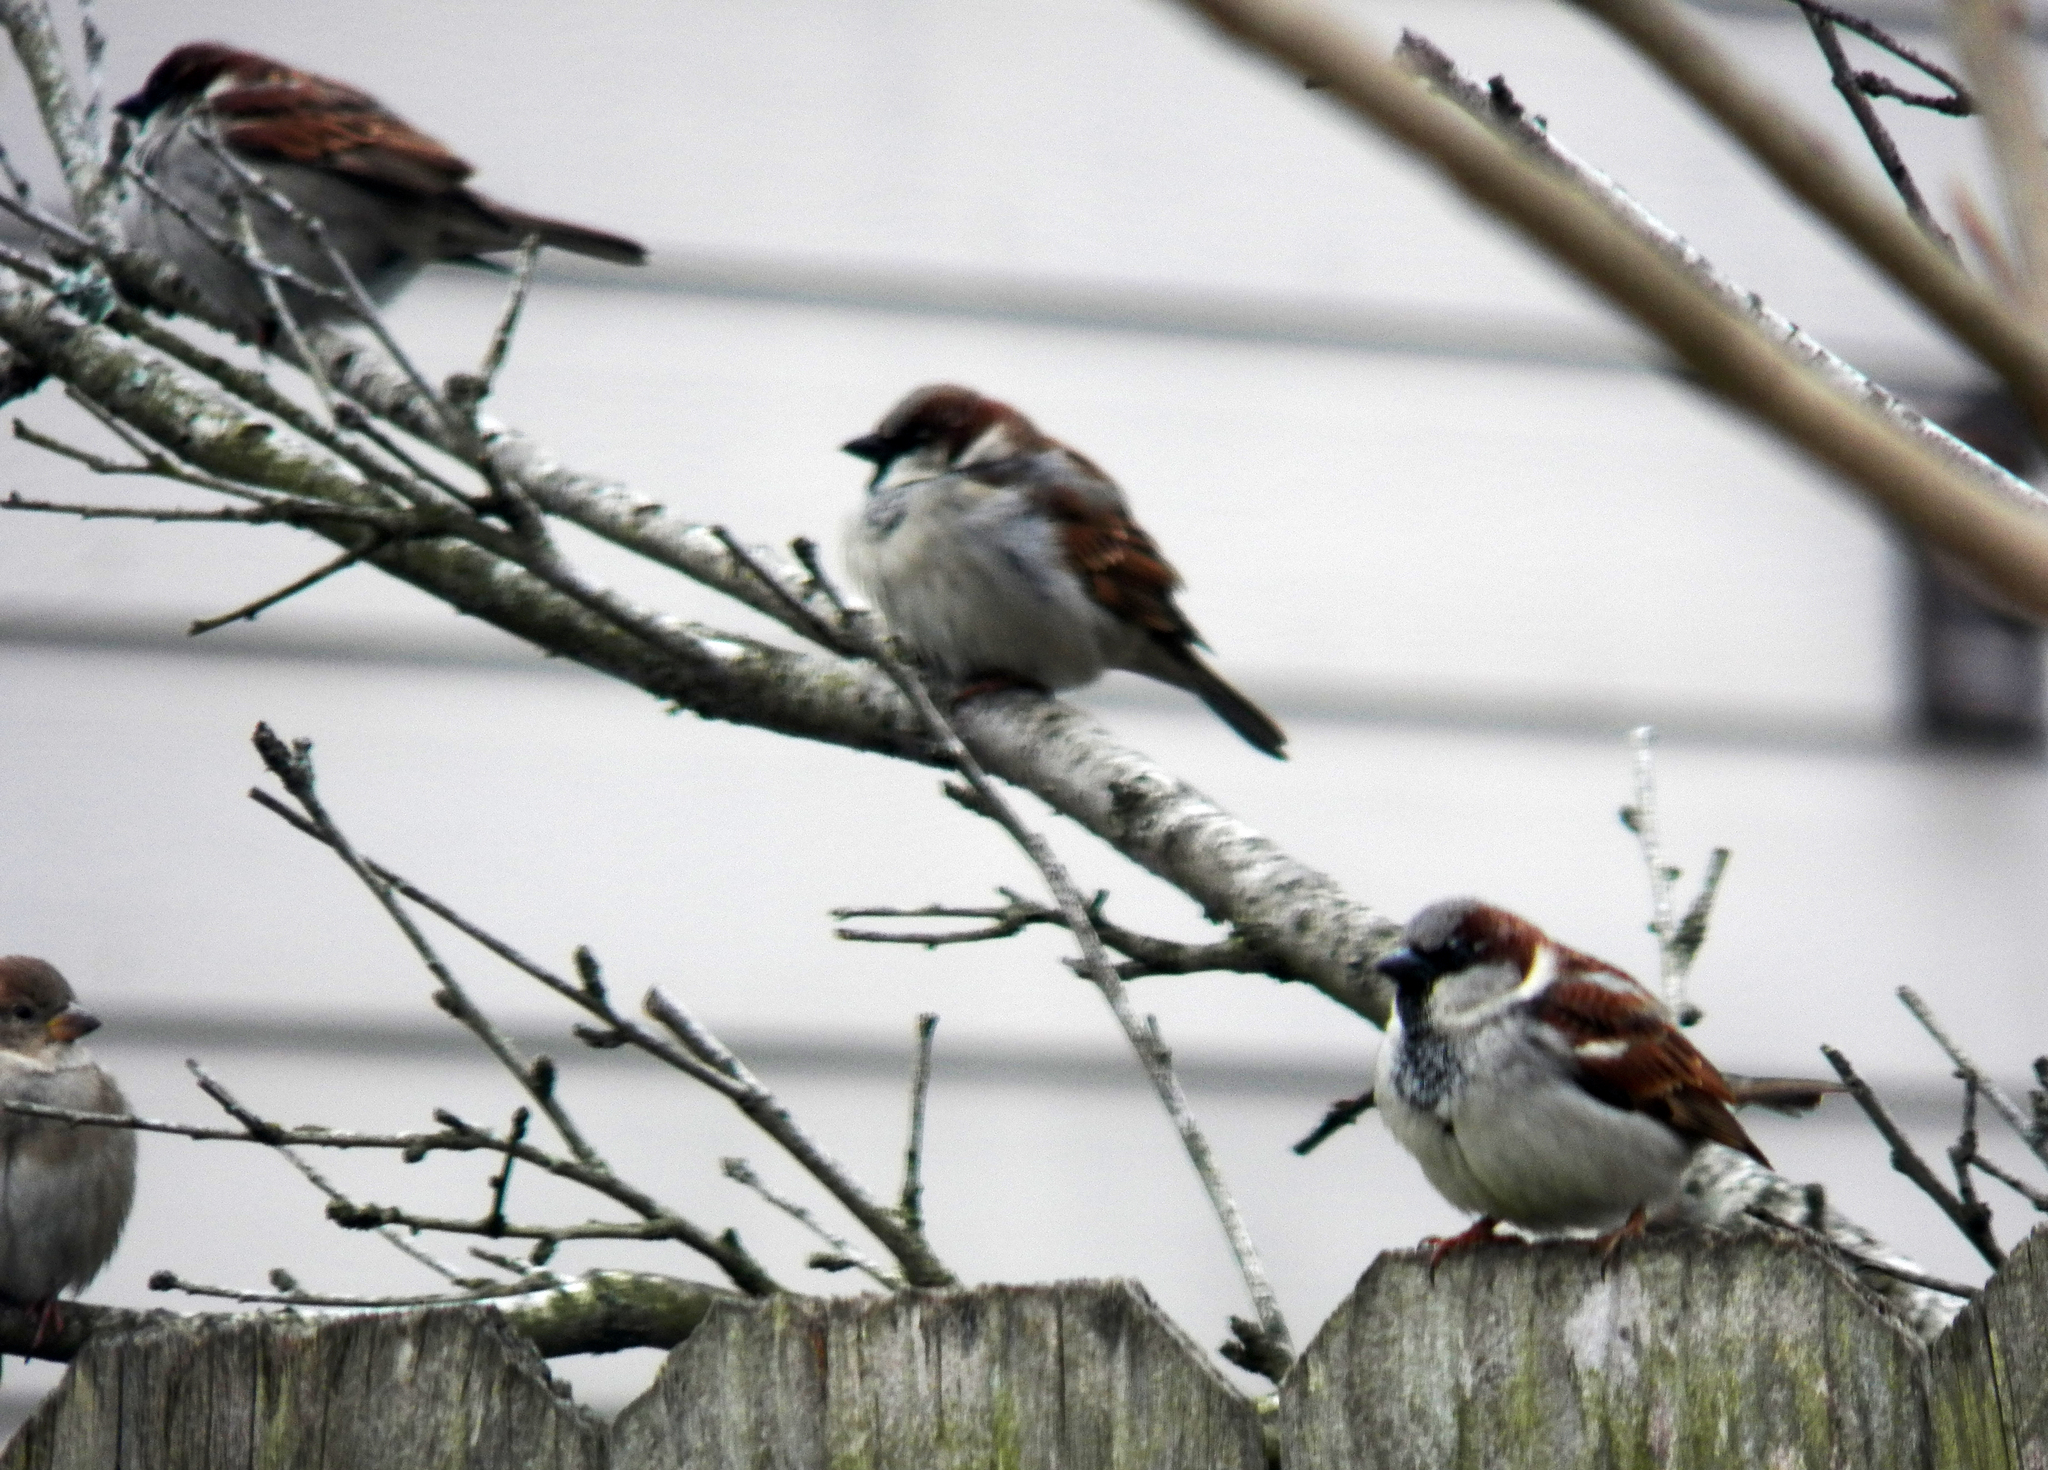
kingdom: Animalia
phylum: Chordata
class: Aves
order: Passeriformes
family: Passeridae
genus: Passer
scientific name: Passer domesticus
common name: House sparrow
